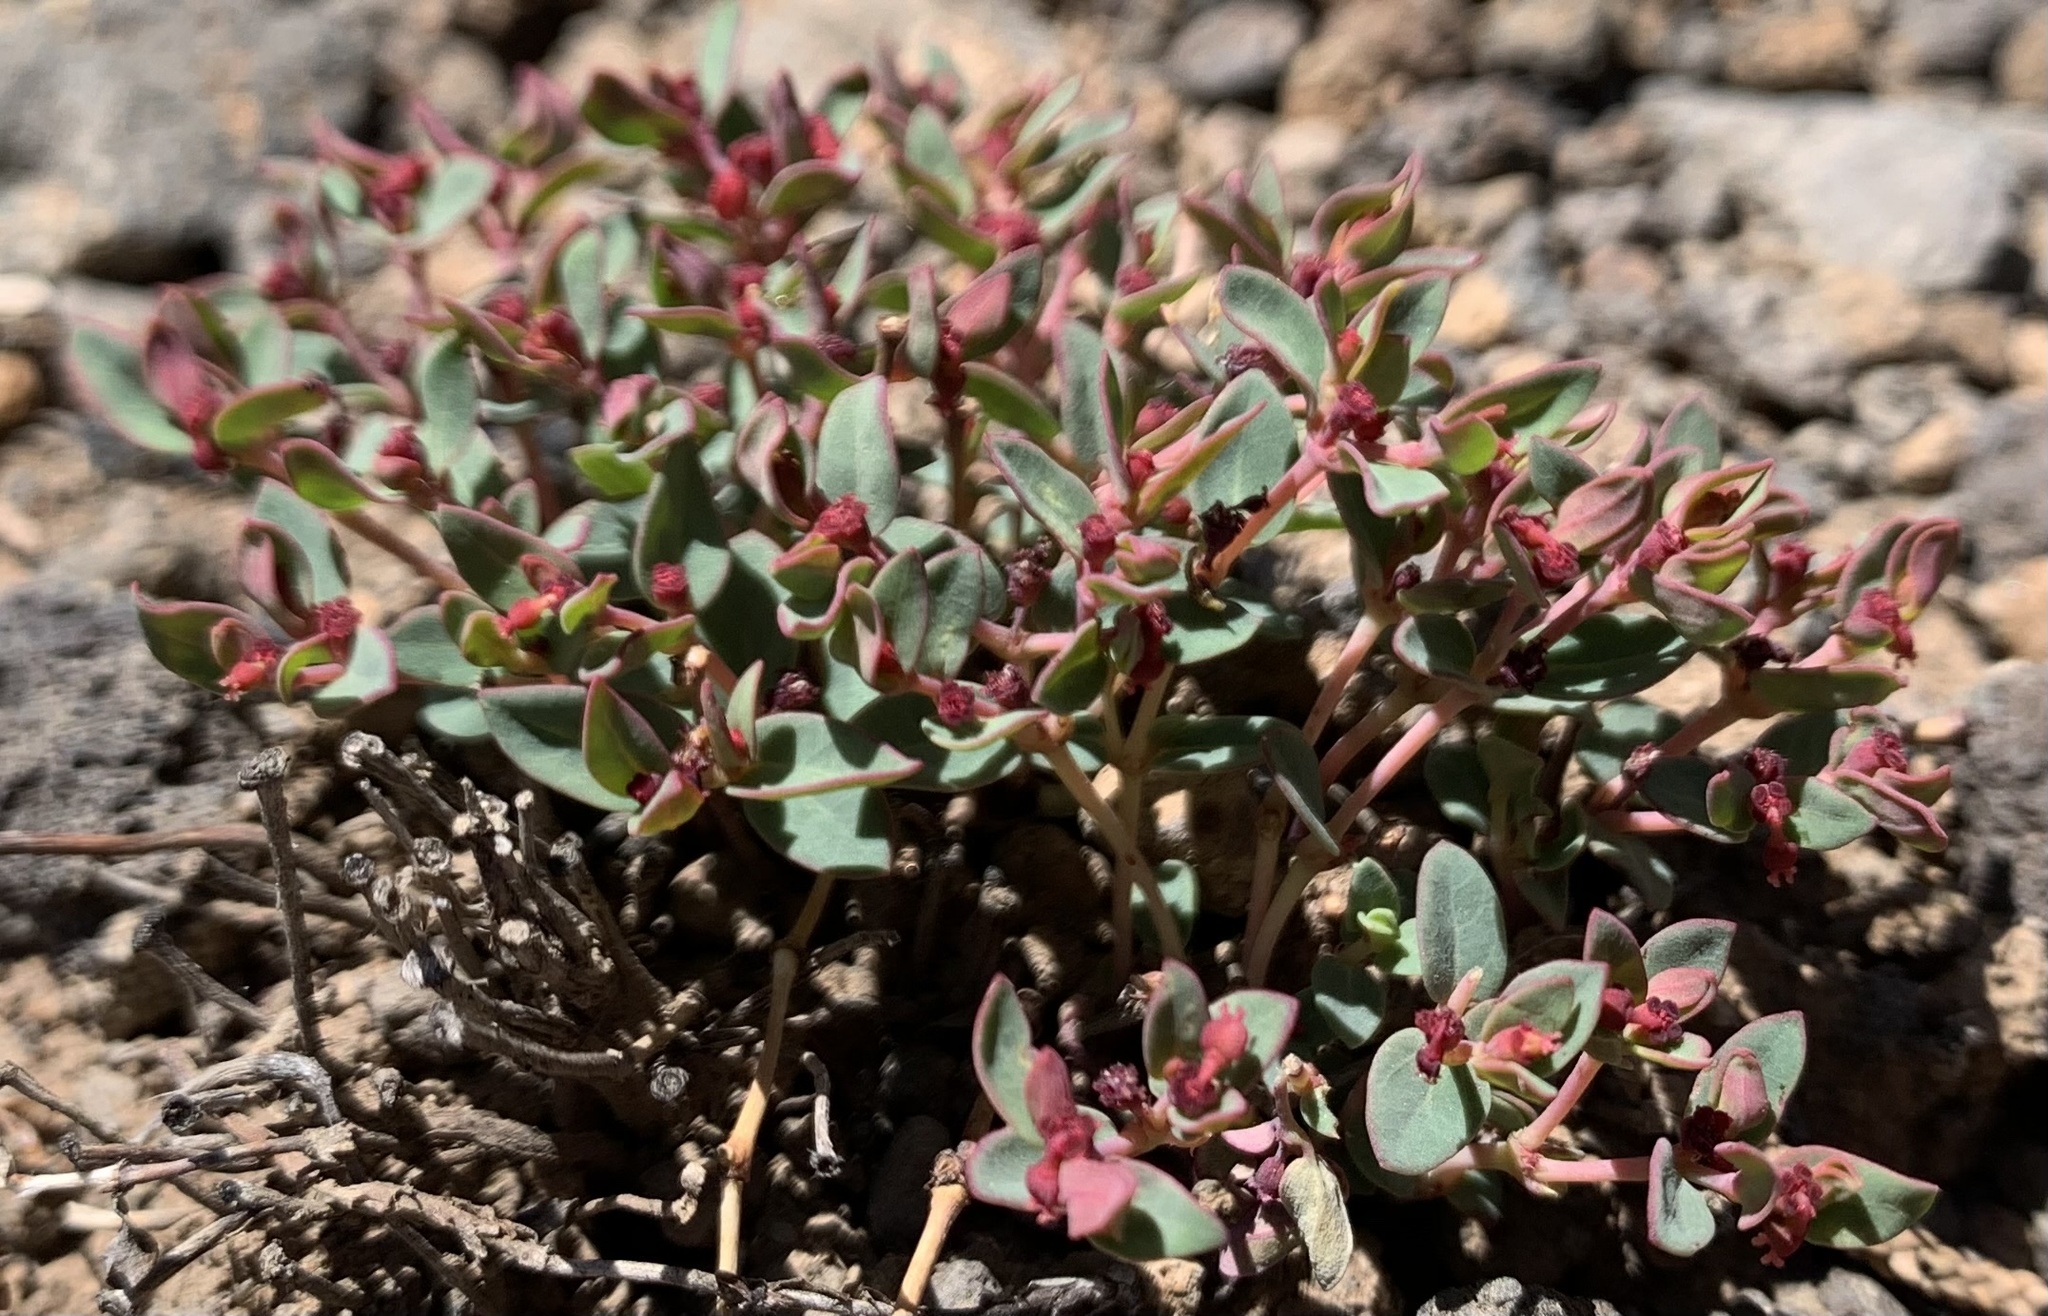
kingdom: Plantae
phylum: Tracheophyta
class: Magnoliopsida
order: Malpighiales
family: Euphorbiaceae
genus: Euphorbia
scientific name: Euphorbia fendleri
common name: Fendler's euphorbia
